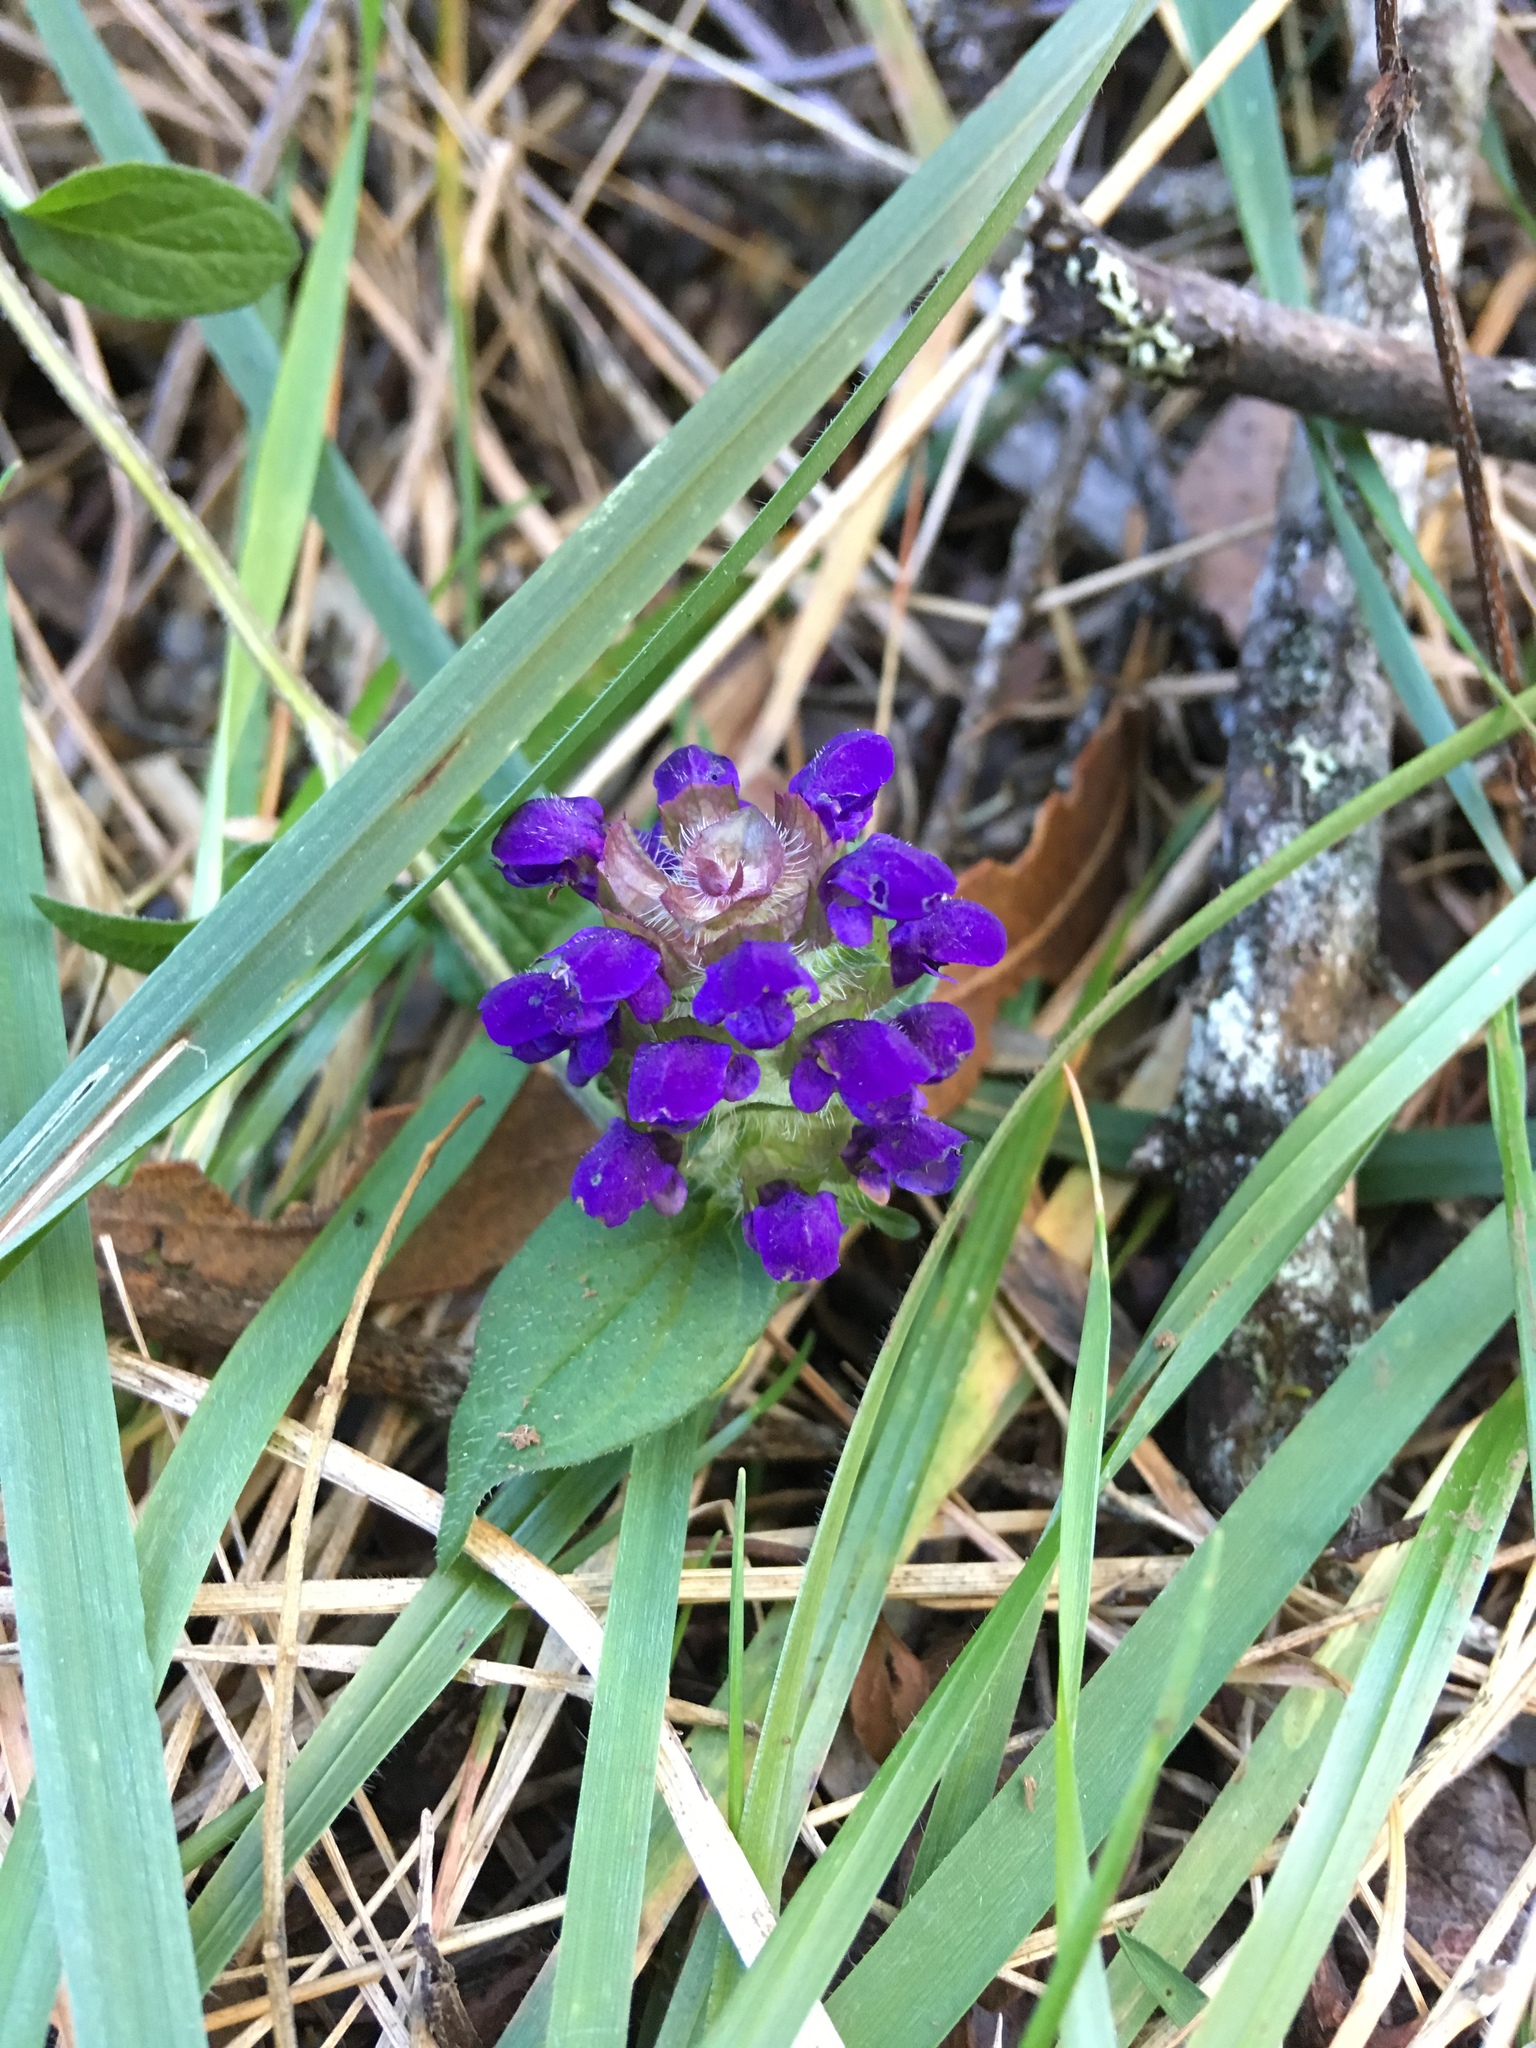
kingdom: Plantae
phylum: Tracheophyta
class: Magnoliopsida
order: Lamiales
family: Lamiaceae
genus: Prunella
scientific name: Prunella vulgaris
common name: Heal-all
